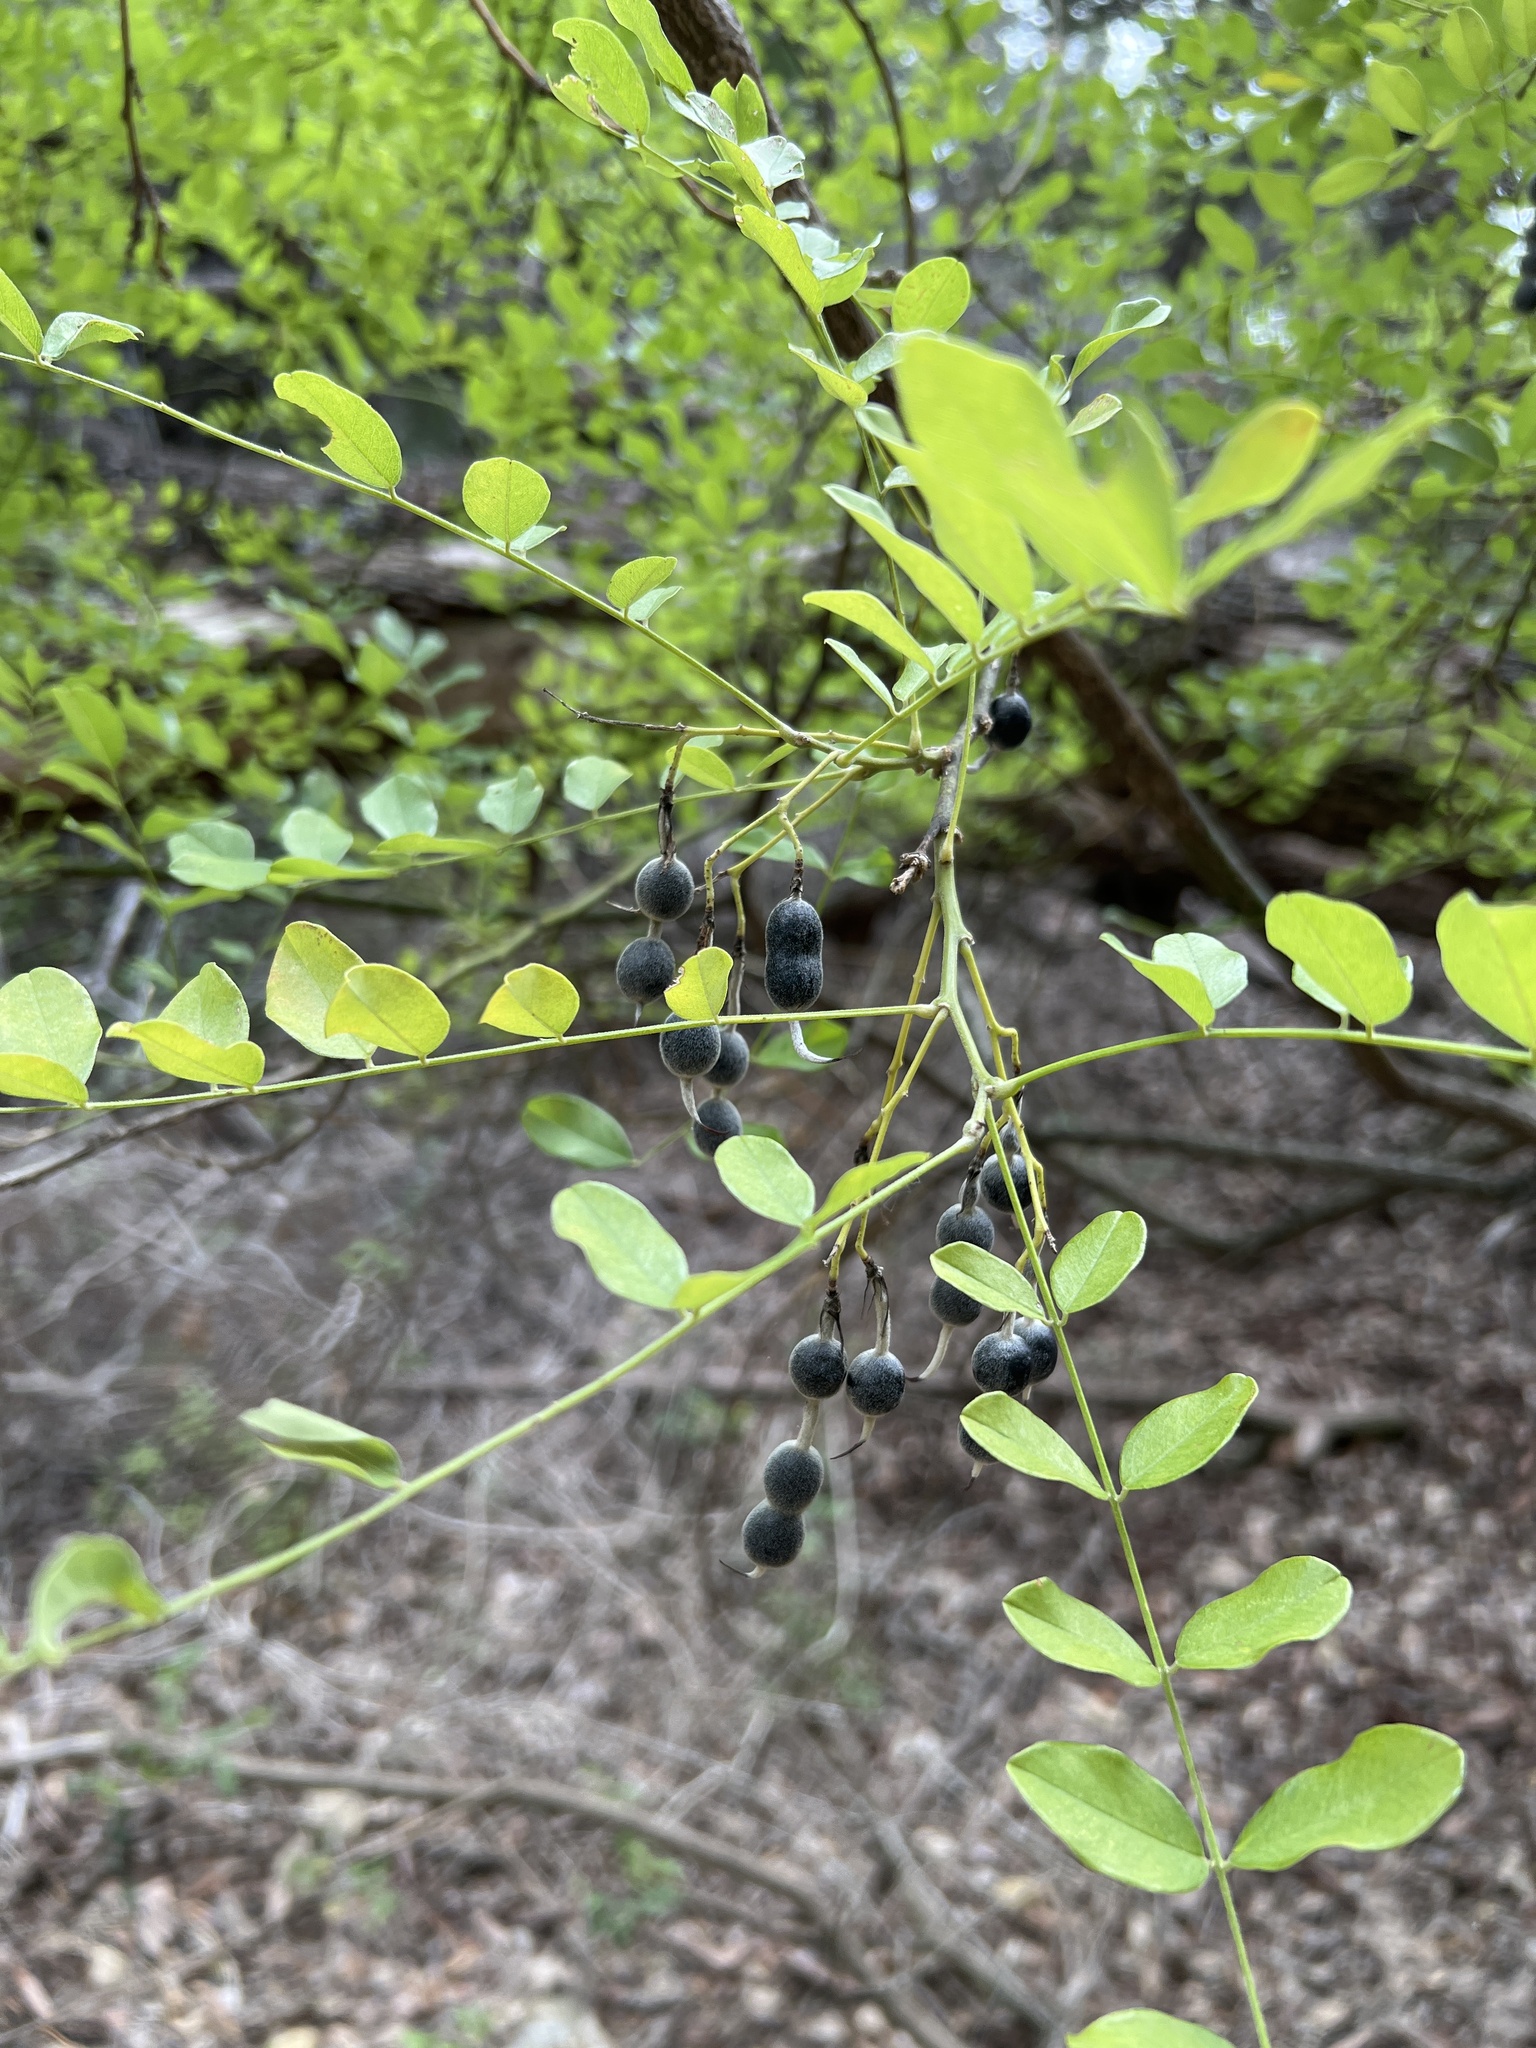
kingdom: Plantae
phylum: Tracheophyta
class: Magnoliopsida
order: Fabales
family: Fabaceae
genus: Styphnolobium
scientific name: Styphnolobium affine
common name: Texas sophora
